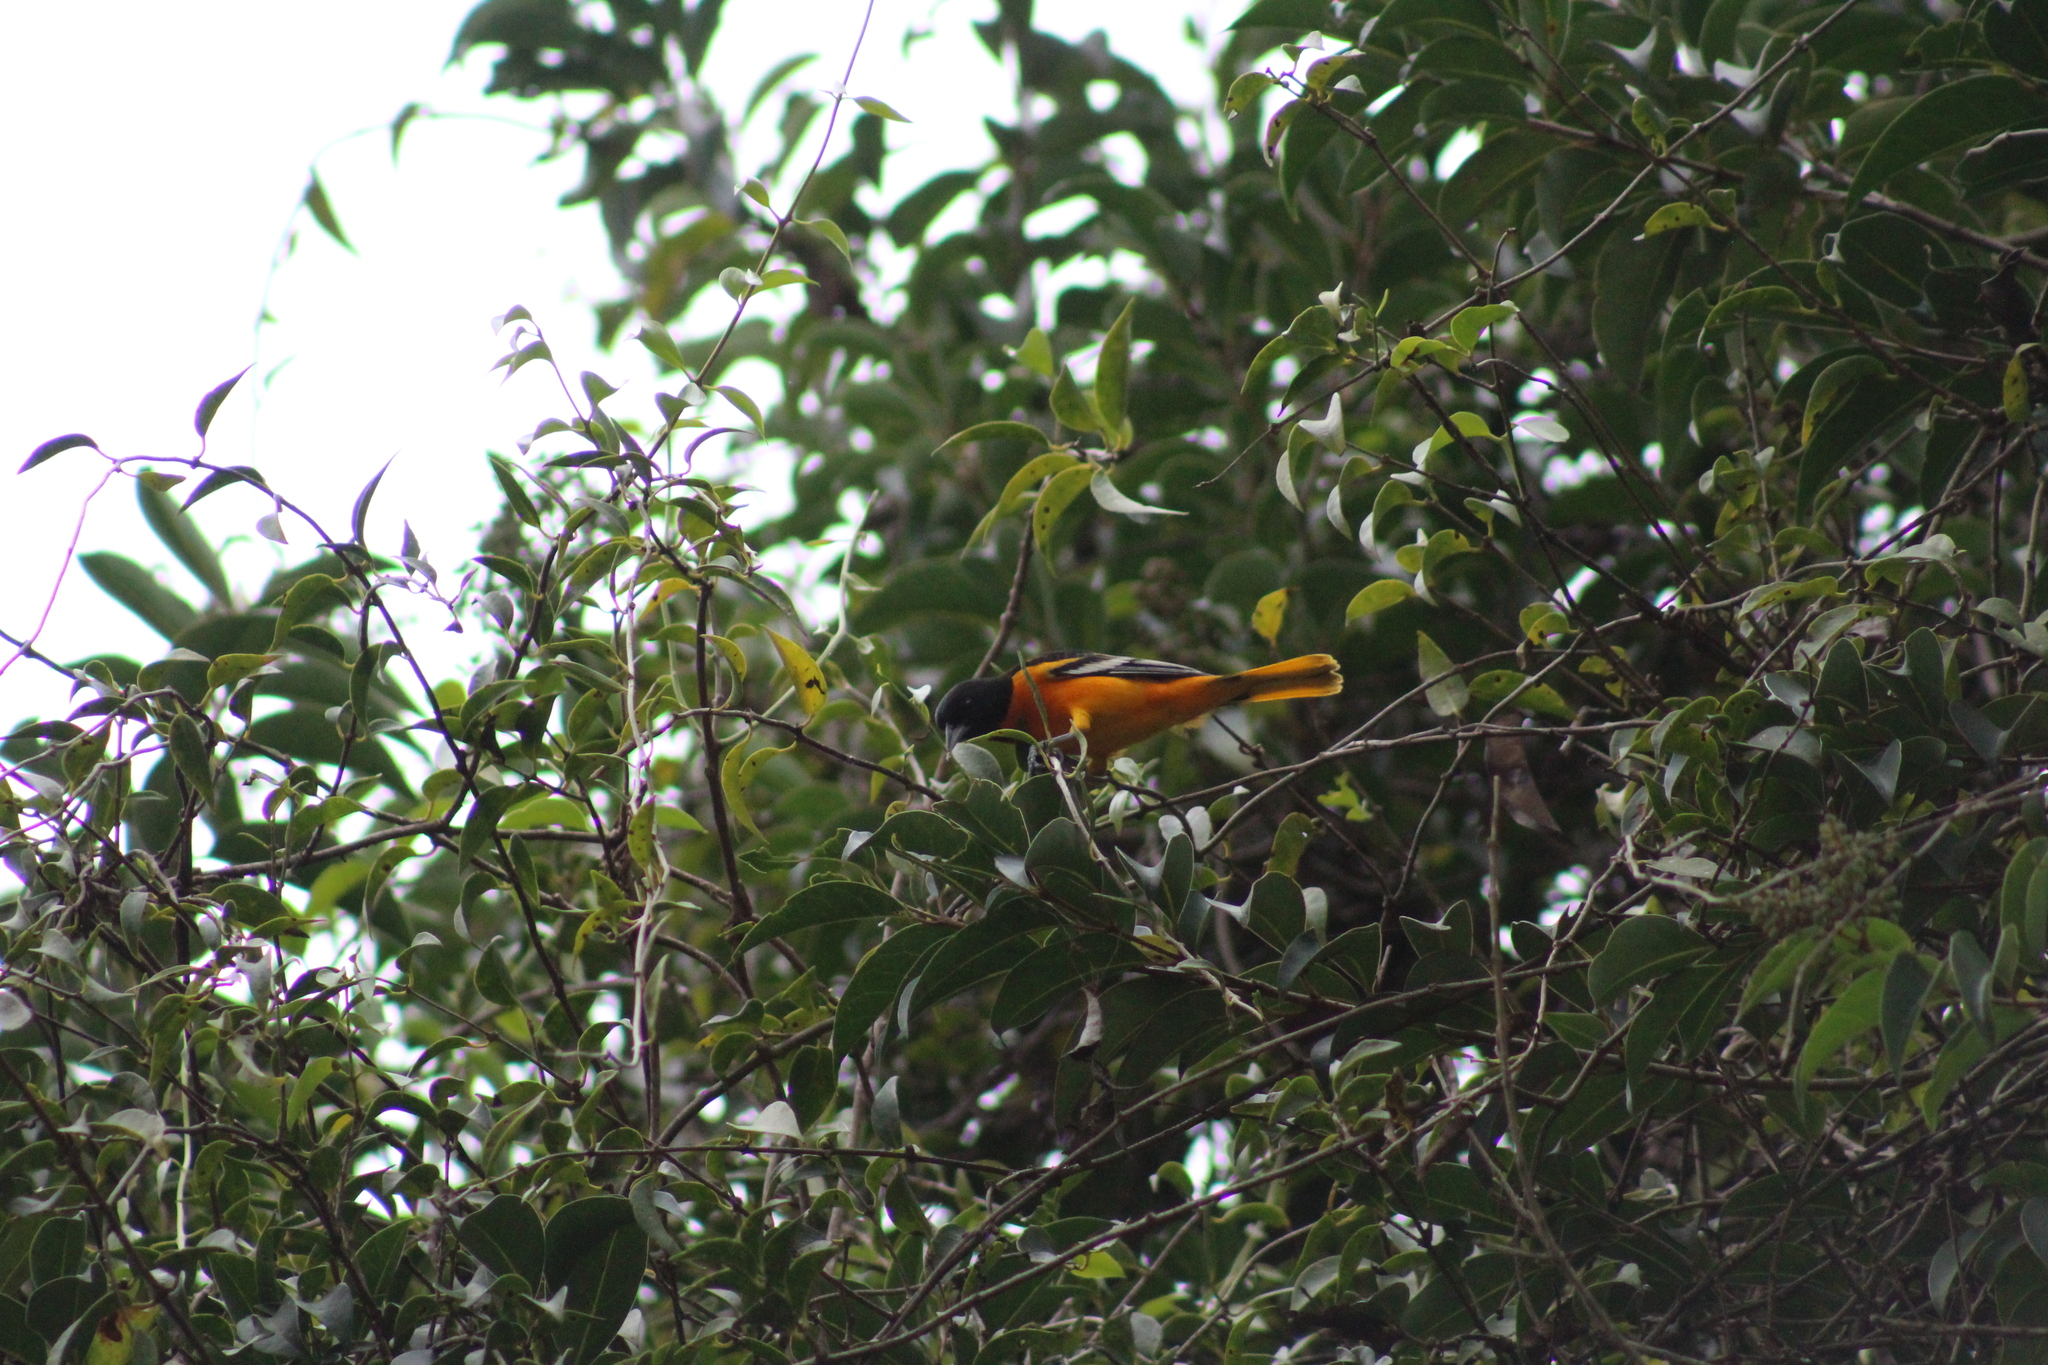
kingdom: Animalia
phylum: Chordata
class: Aves
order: Passeriformes
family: Icteridae
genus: Icterus
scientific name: Icterus galbula
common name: Baltimore oriole
